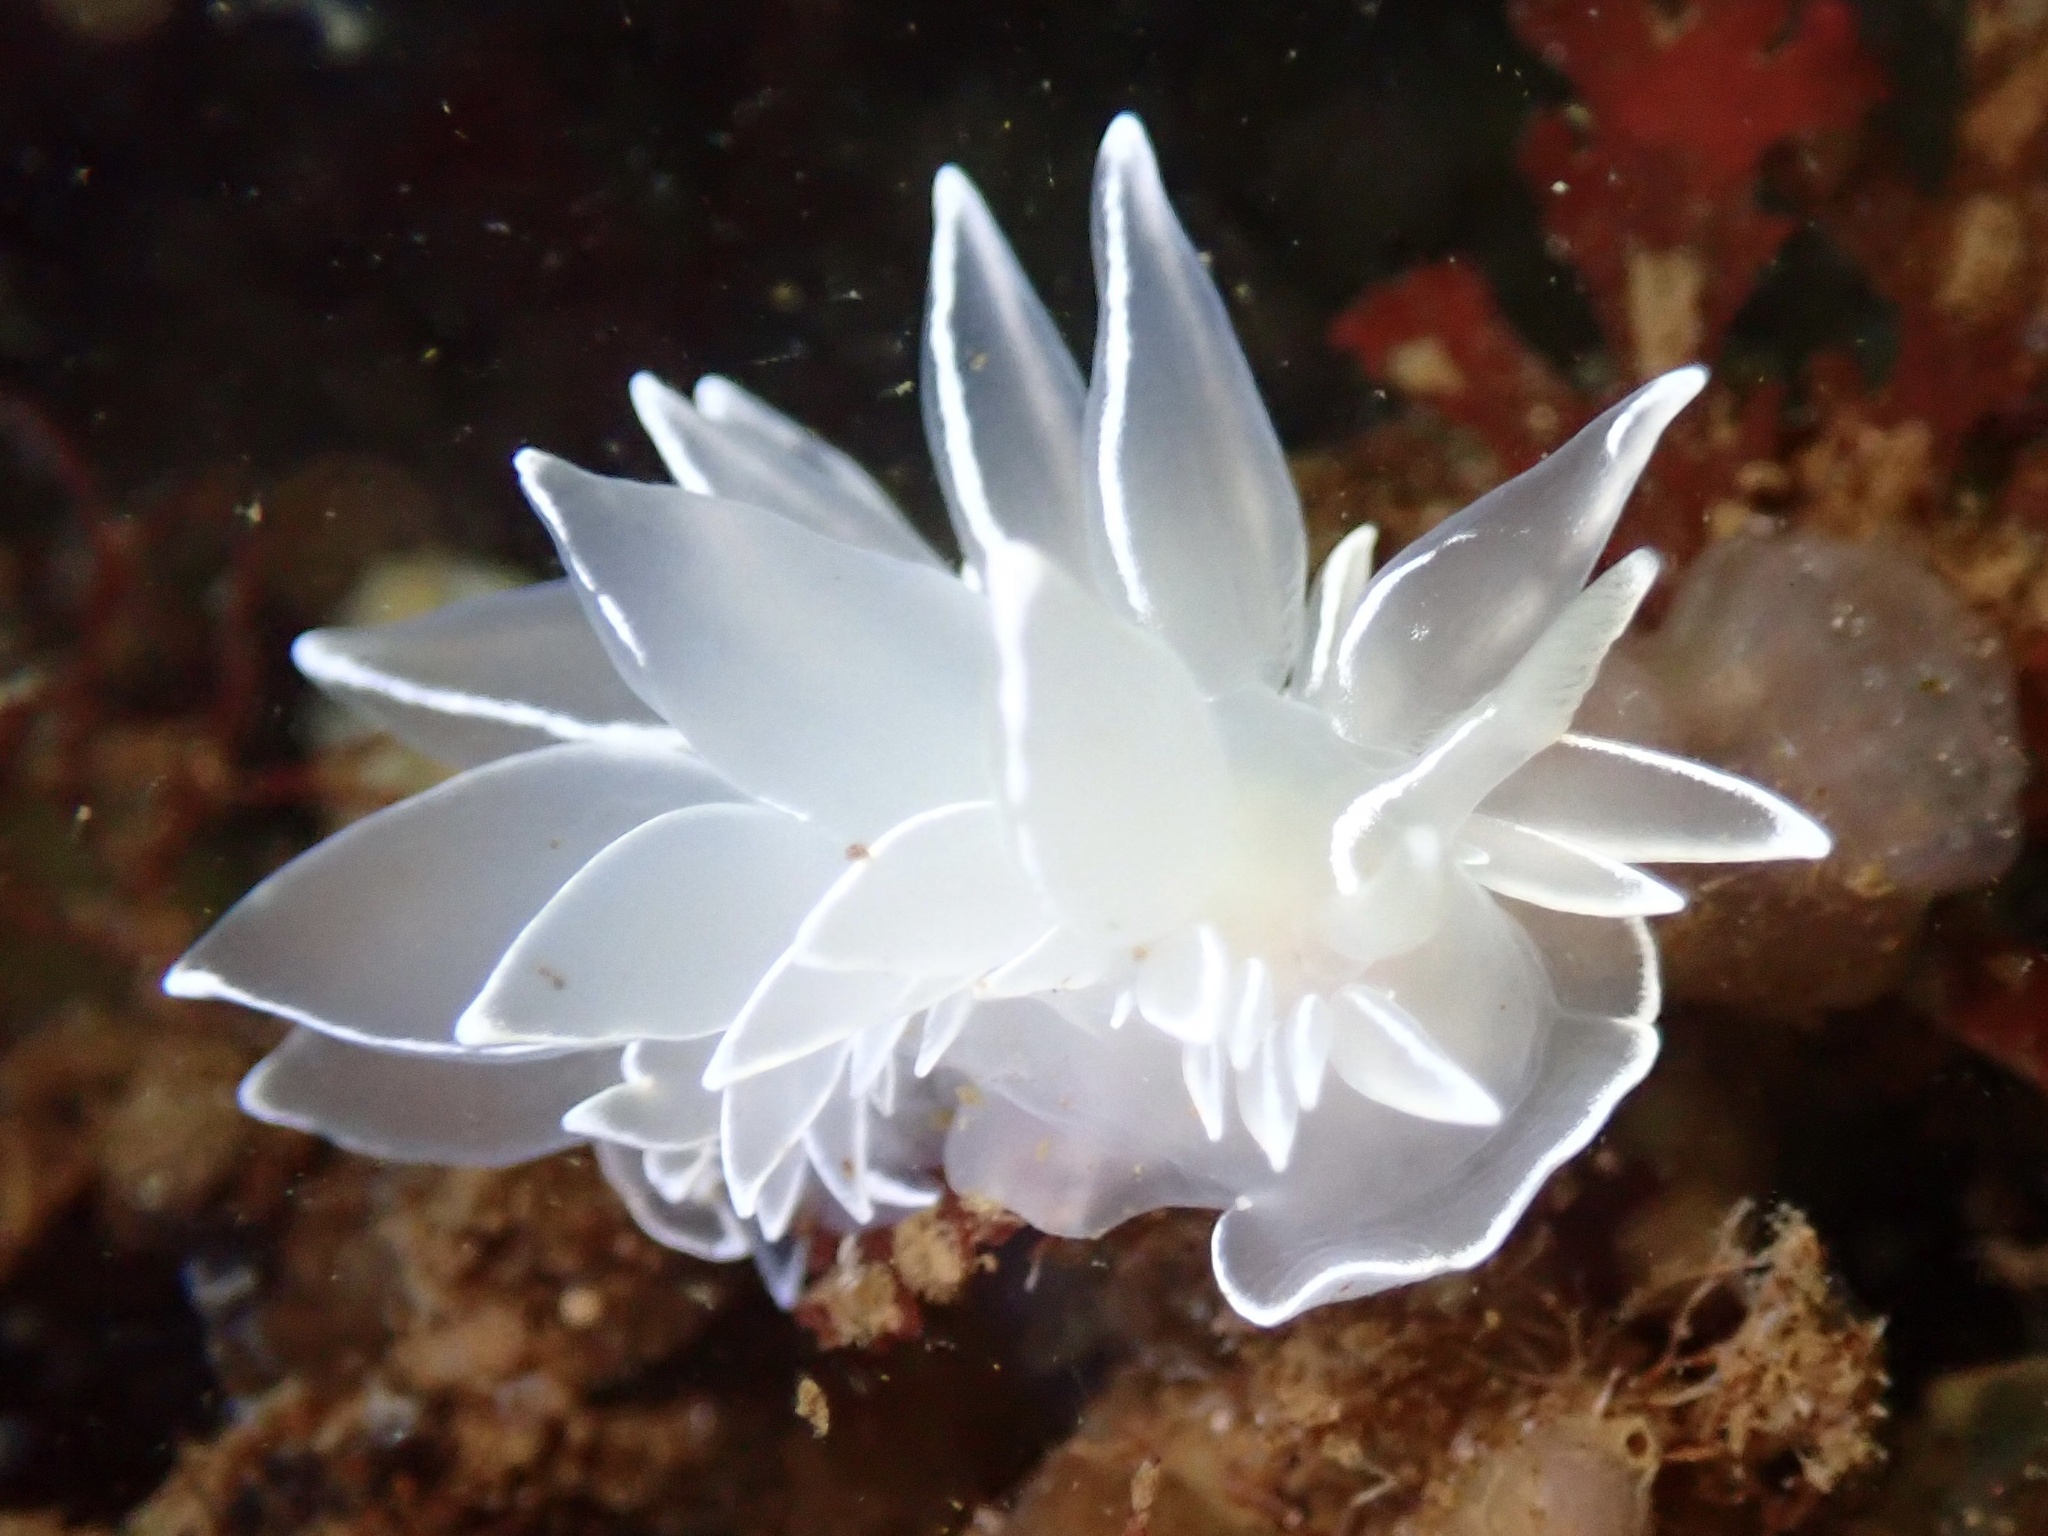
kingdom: Animalia
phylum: Mollusca
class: Gastropoda
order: Nudibranchia
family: Dironidae
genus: Dirona
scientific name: Dirona albolineata
